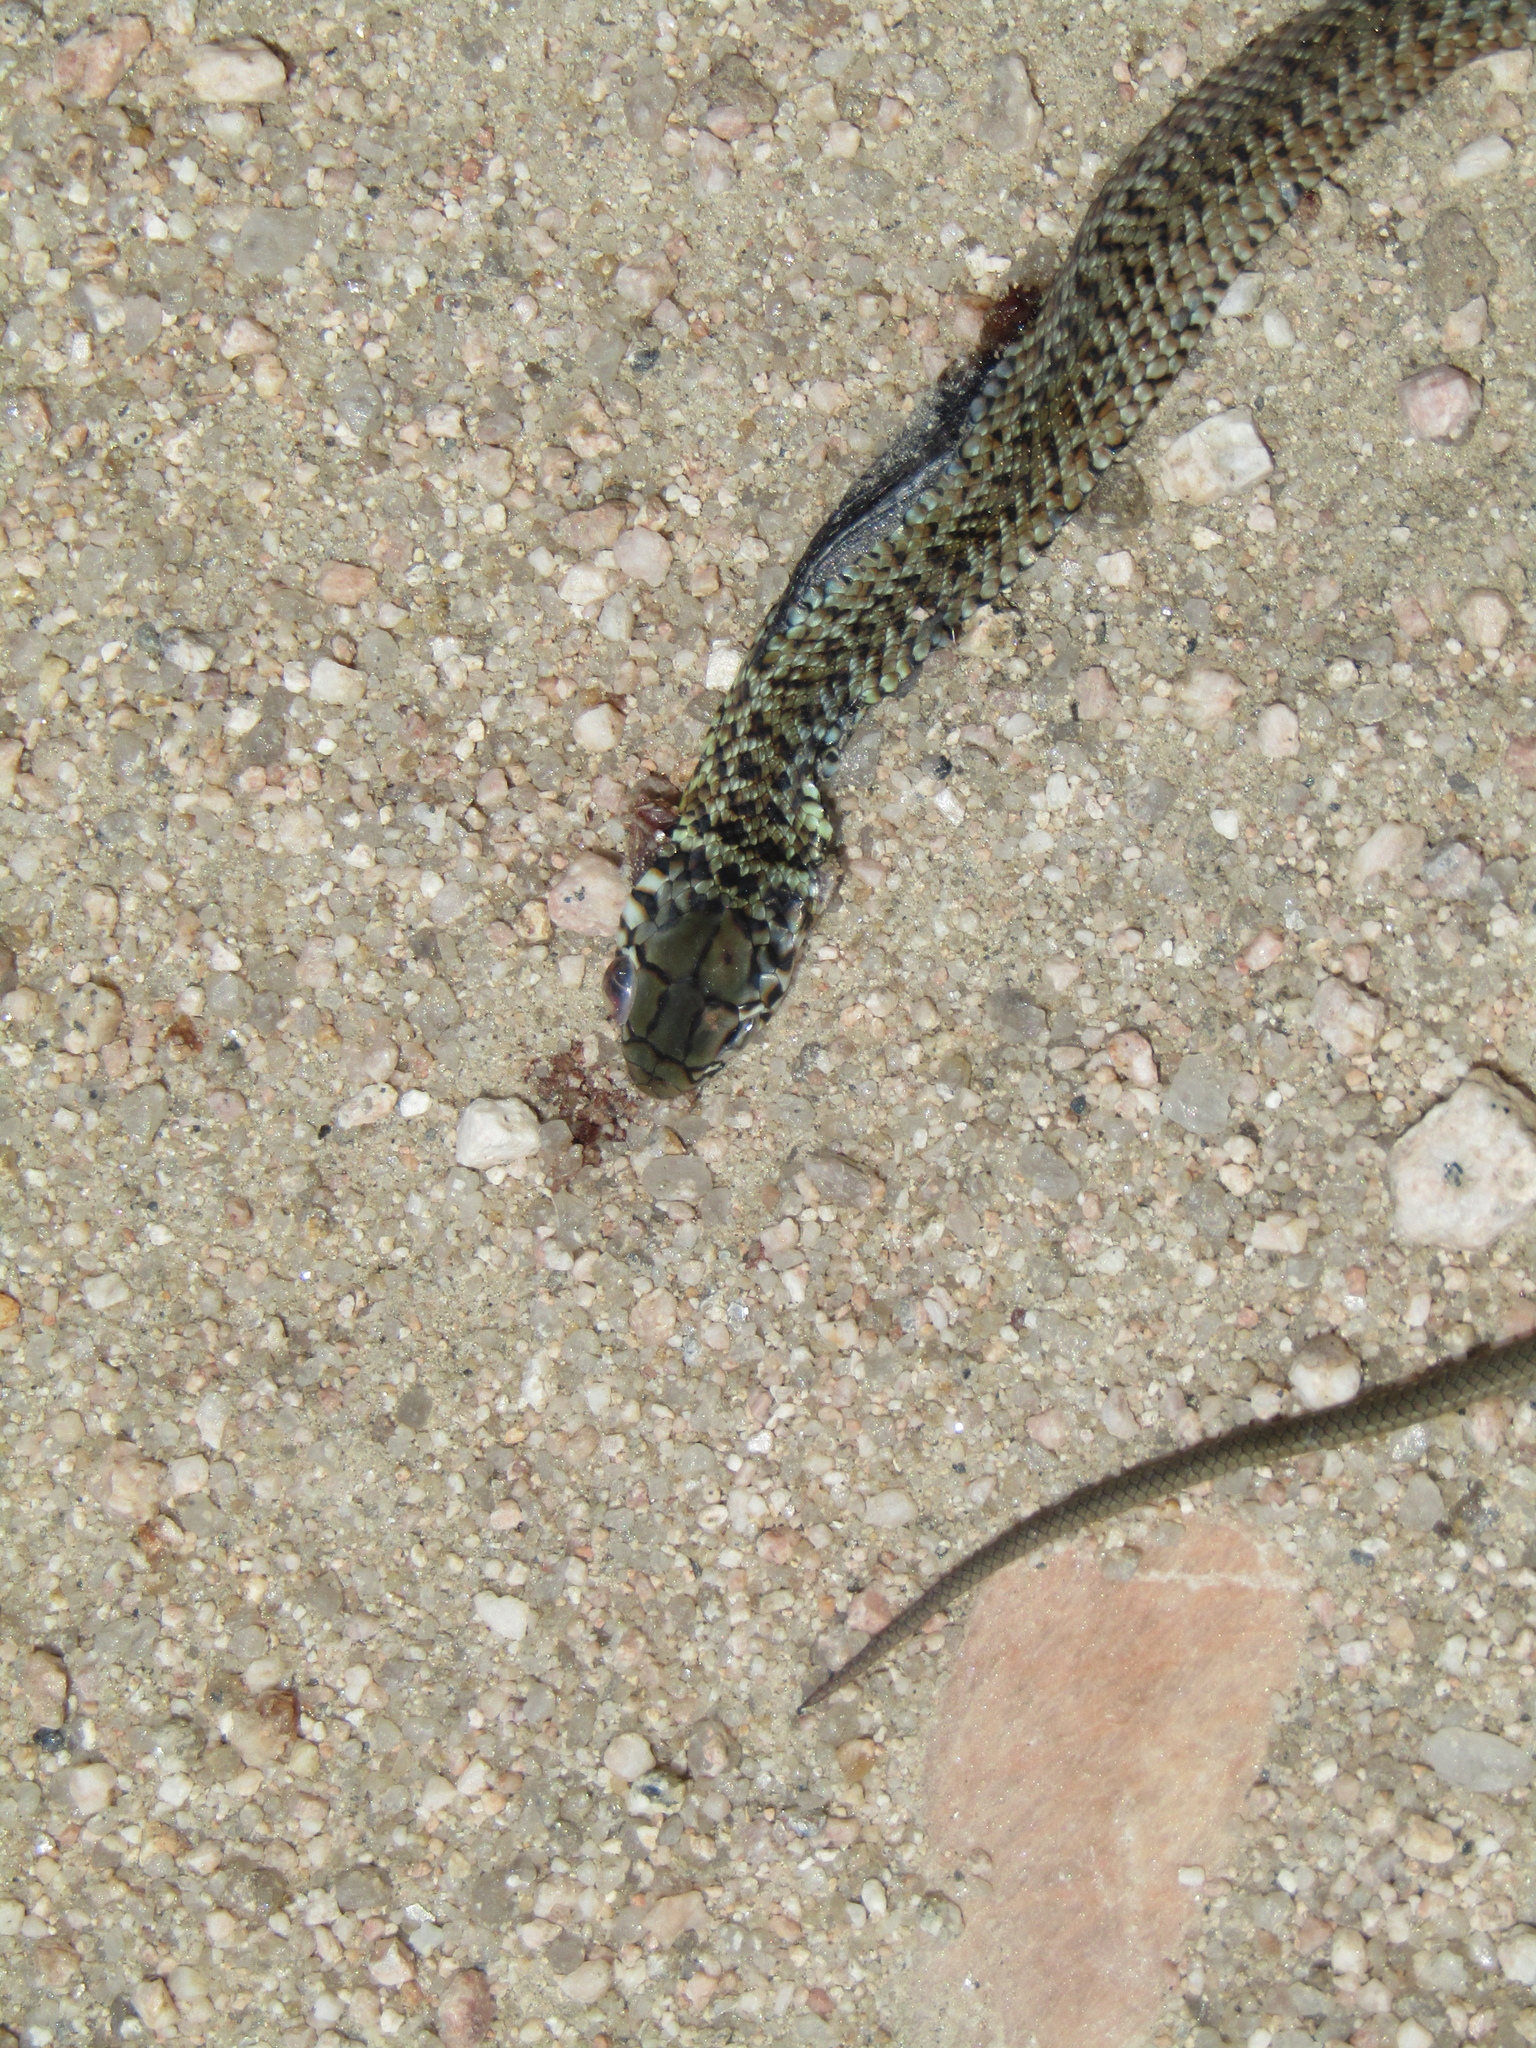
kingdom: Animalia
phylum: Chordata
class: Squamata
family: Colubridae
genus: Philodryas
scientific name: Philodryas patagoniensis
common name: Patagonia green racer
